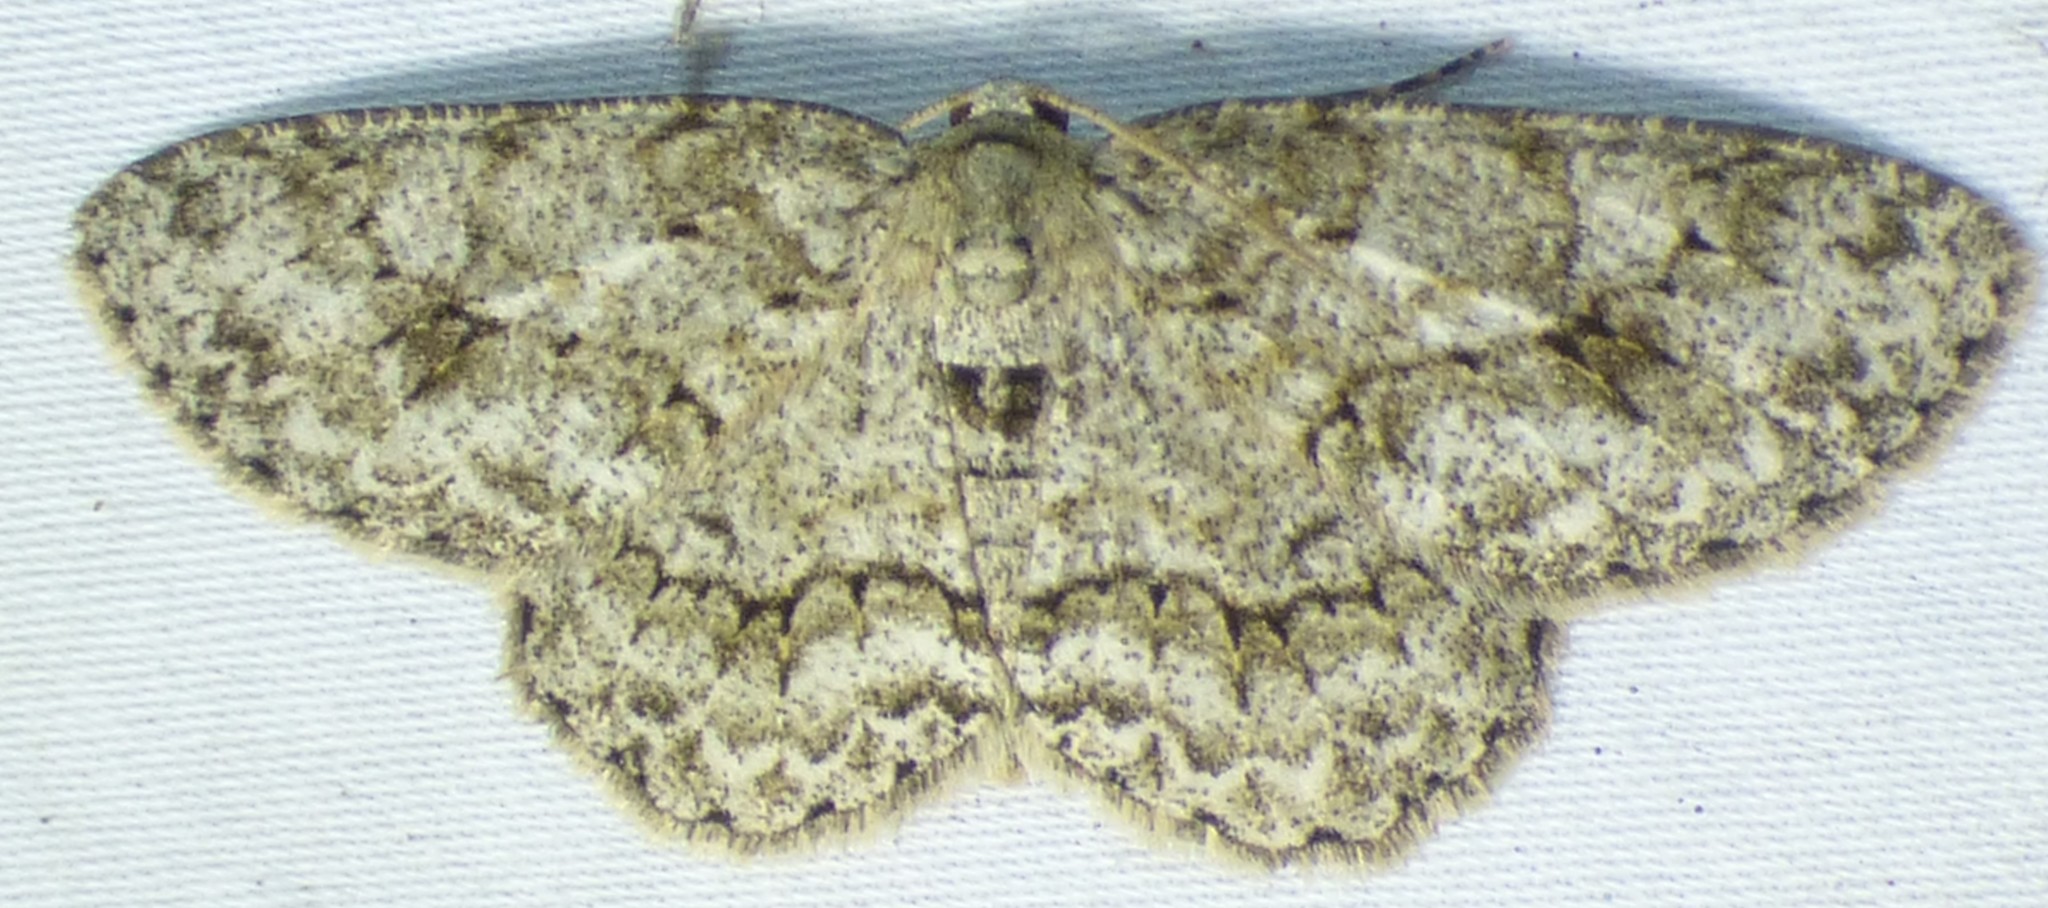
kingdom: Animalia
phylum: Arthropoda
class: Insecta
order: Lepidoptera
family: Geometridae
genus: Ectropis
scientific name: Ectropis crepuscularia
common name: Engrailed
